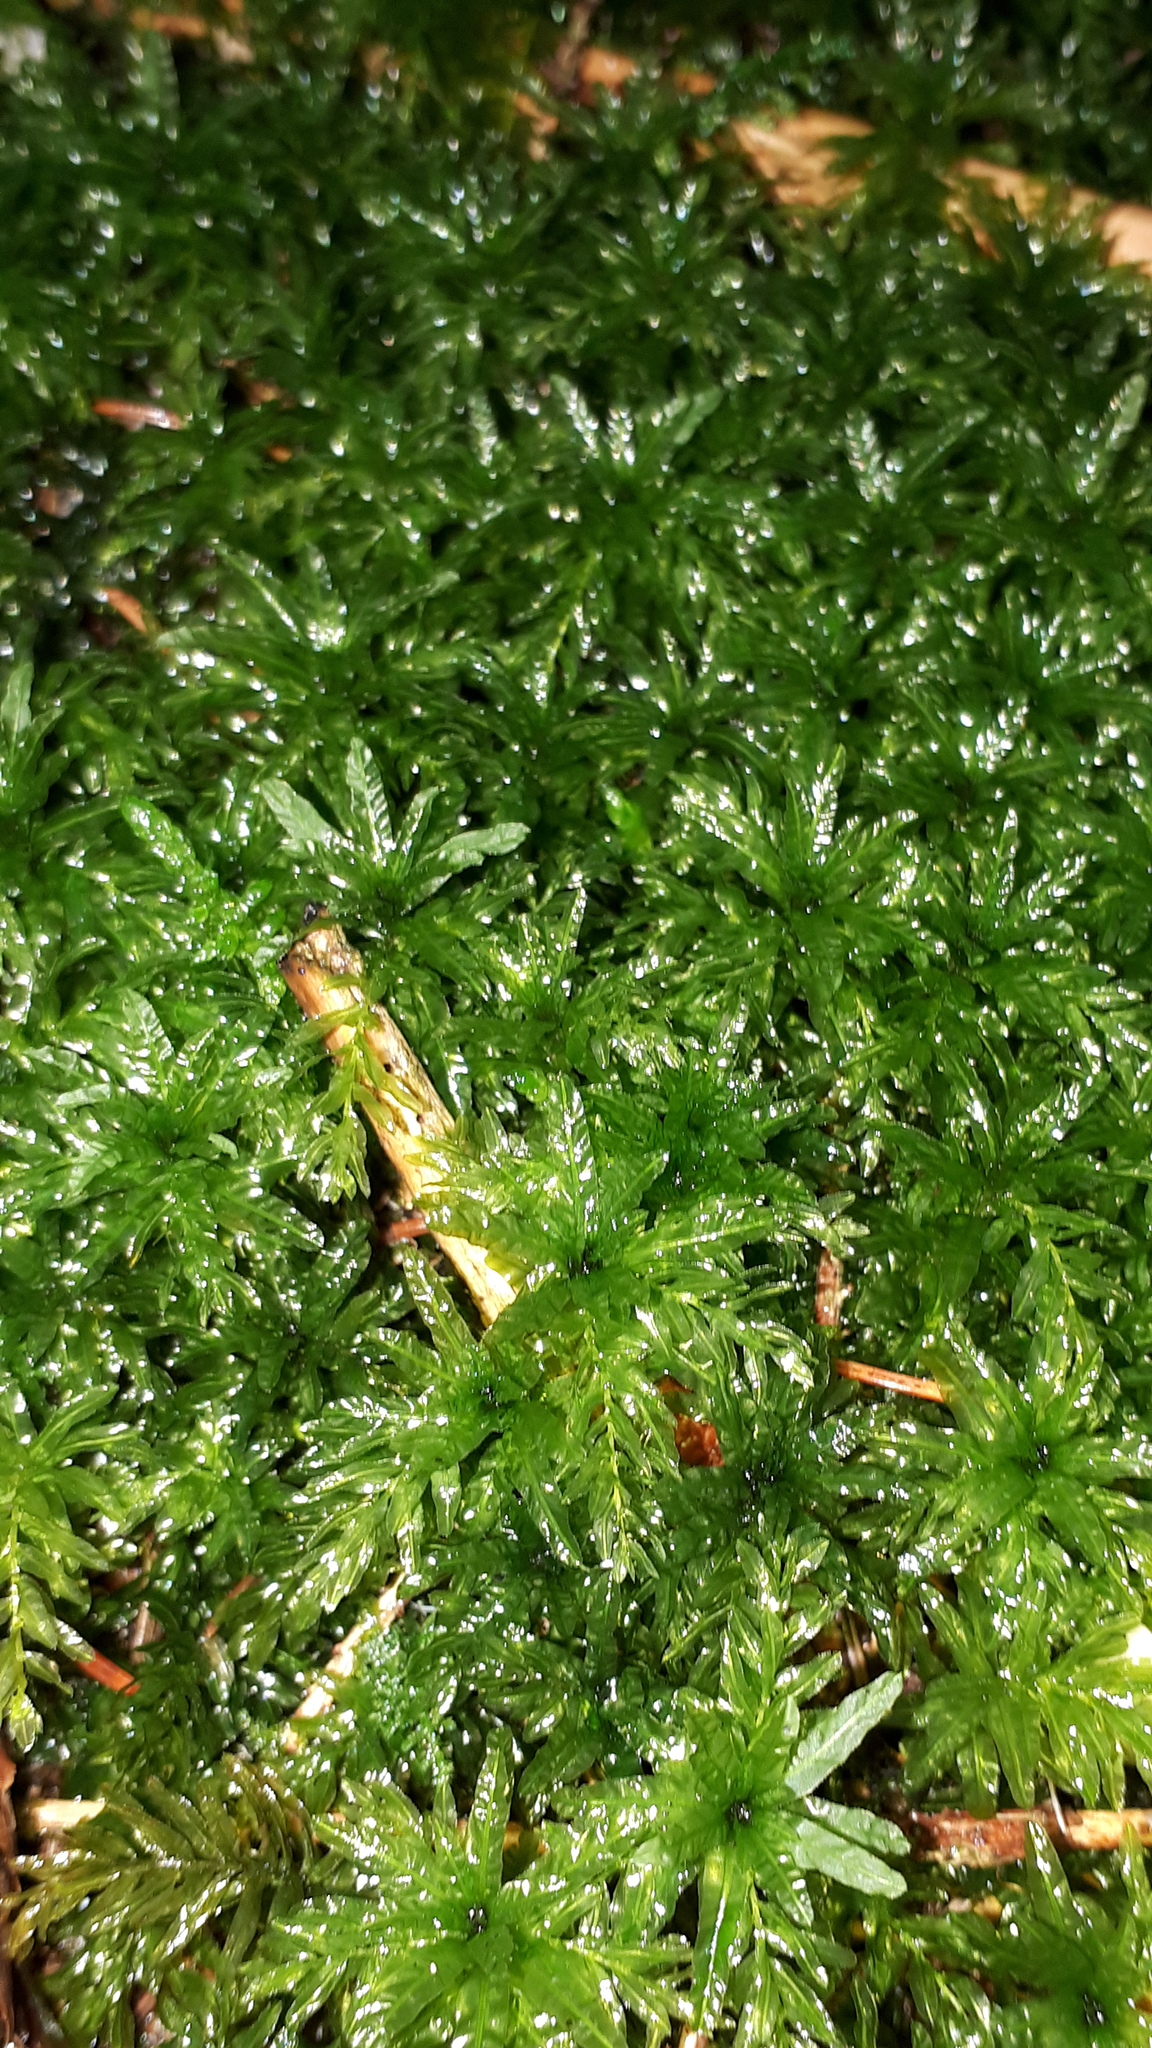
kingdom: Plantae
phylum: Bryophyta
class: Bryopsida
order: Bryales
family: Mniaceae
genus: Plagiomnium
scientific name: Plagiomnium undulatum
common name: Hart's-tongue thyme-moss
